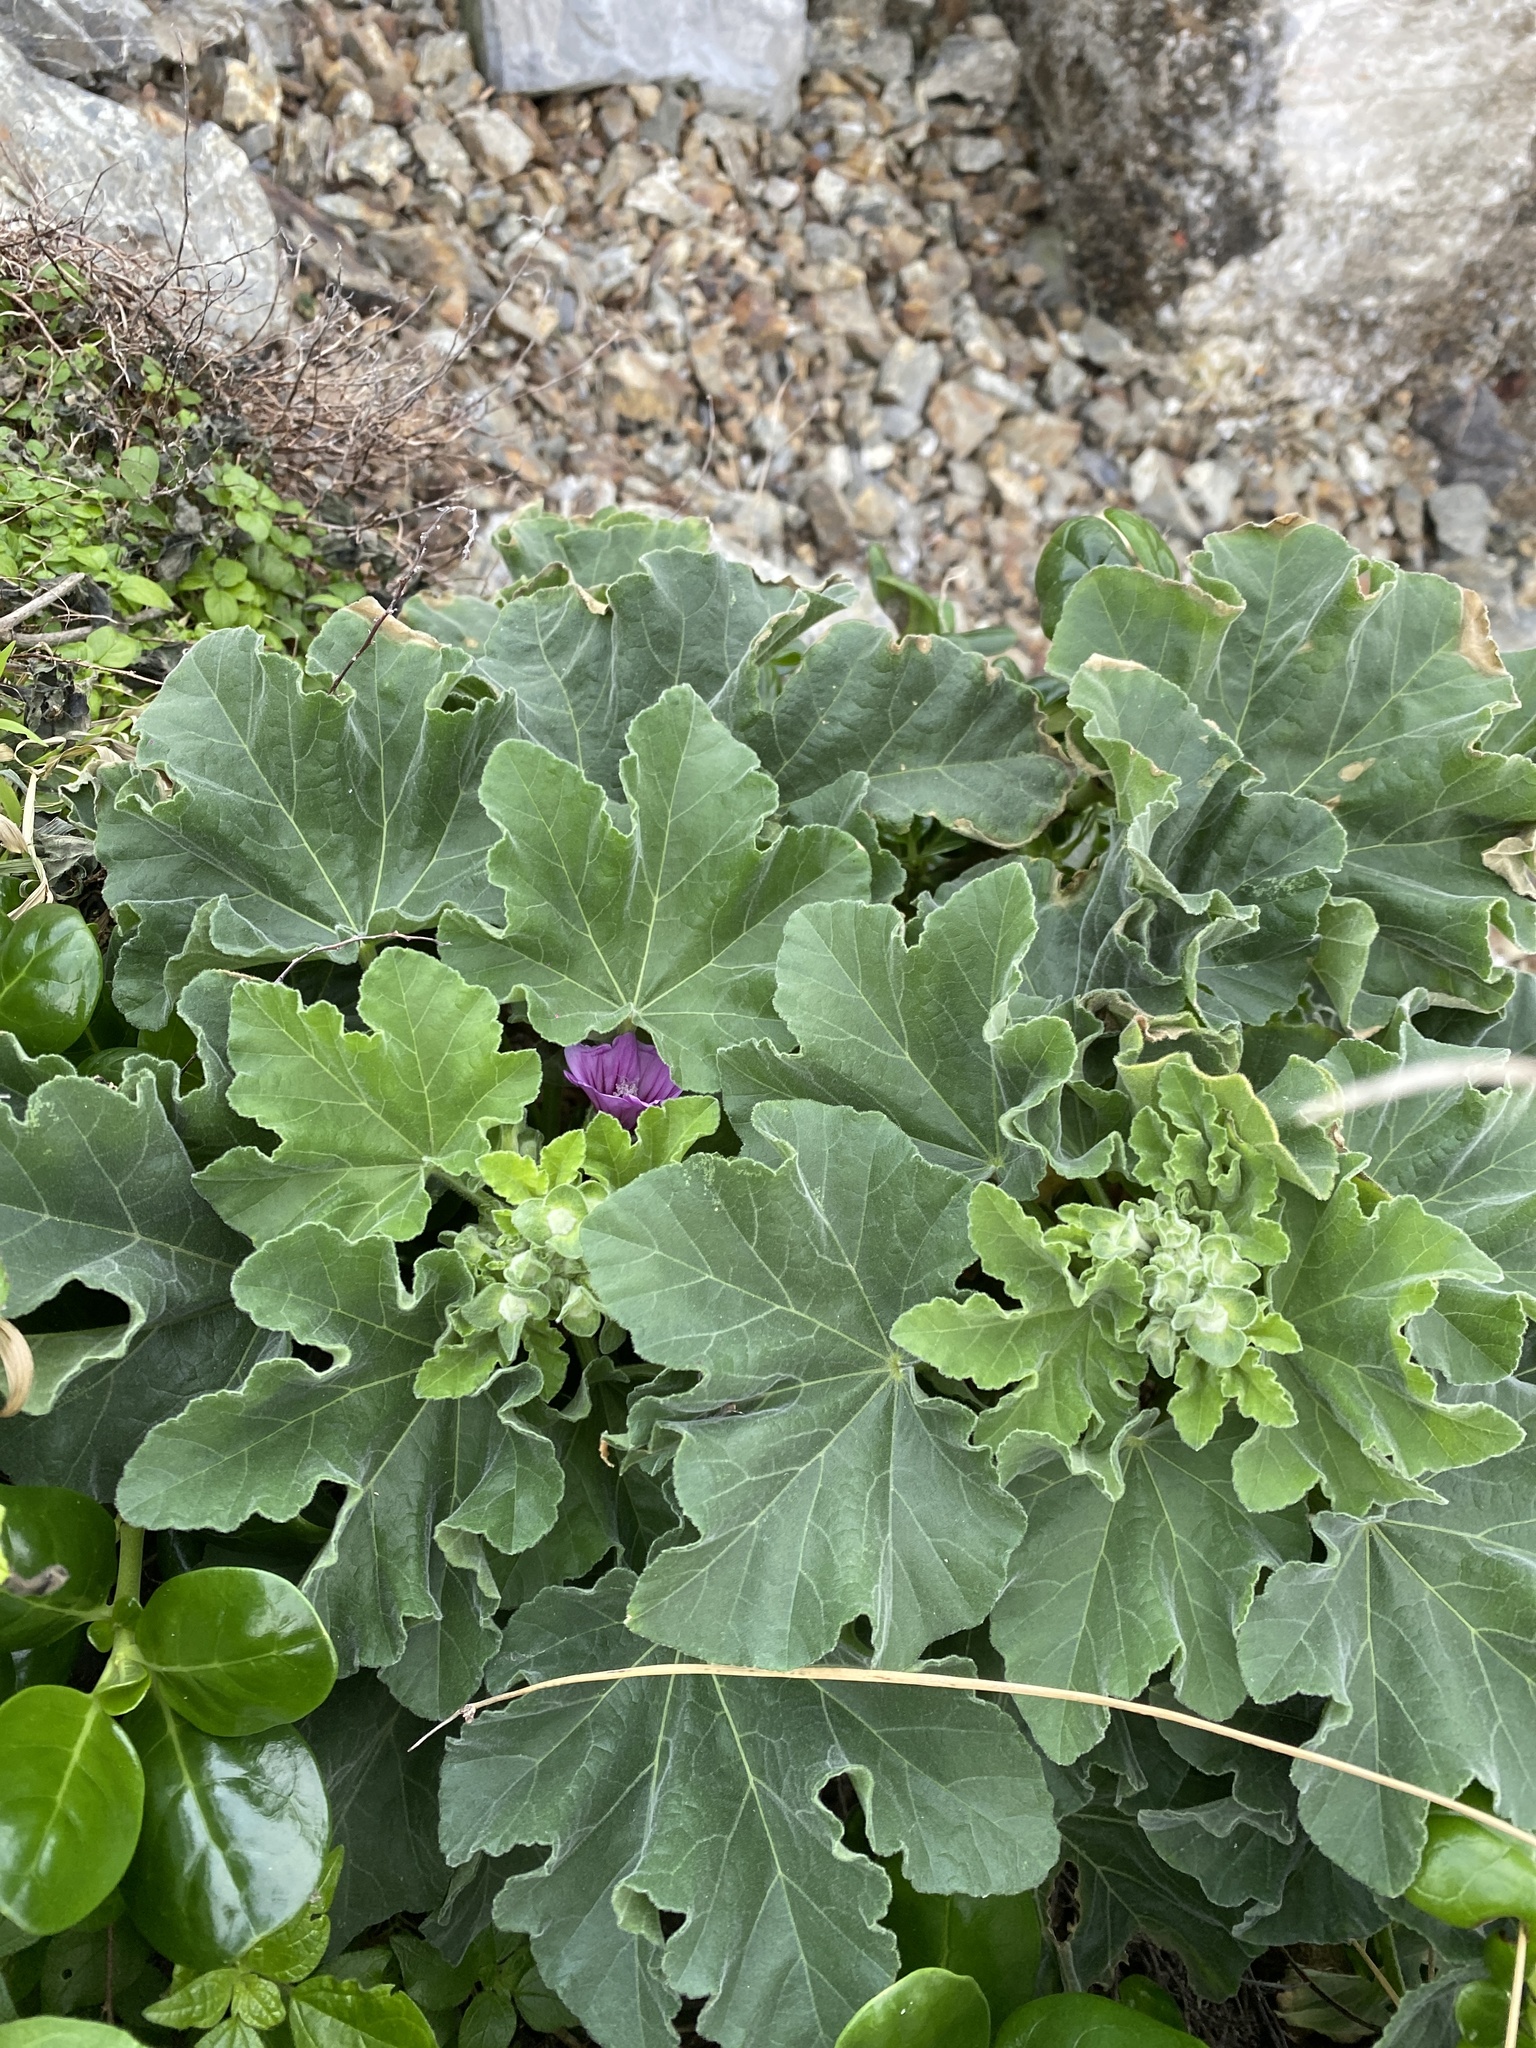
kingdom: Plantae
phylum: Tracheophyta
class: Magnoliopsida
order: Malvales
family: Malvaceae
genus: Malva
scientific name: Malva arborea
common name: Tree mallow
